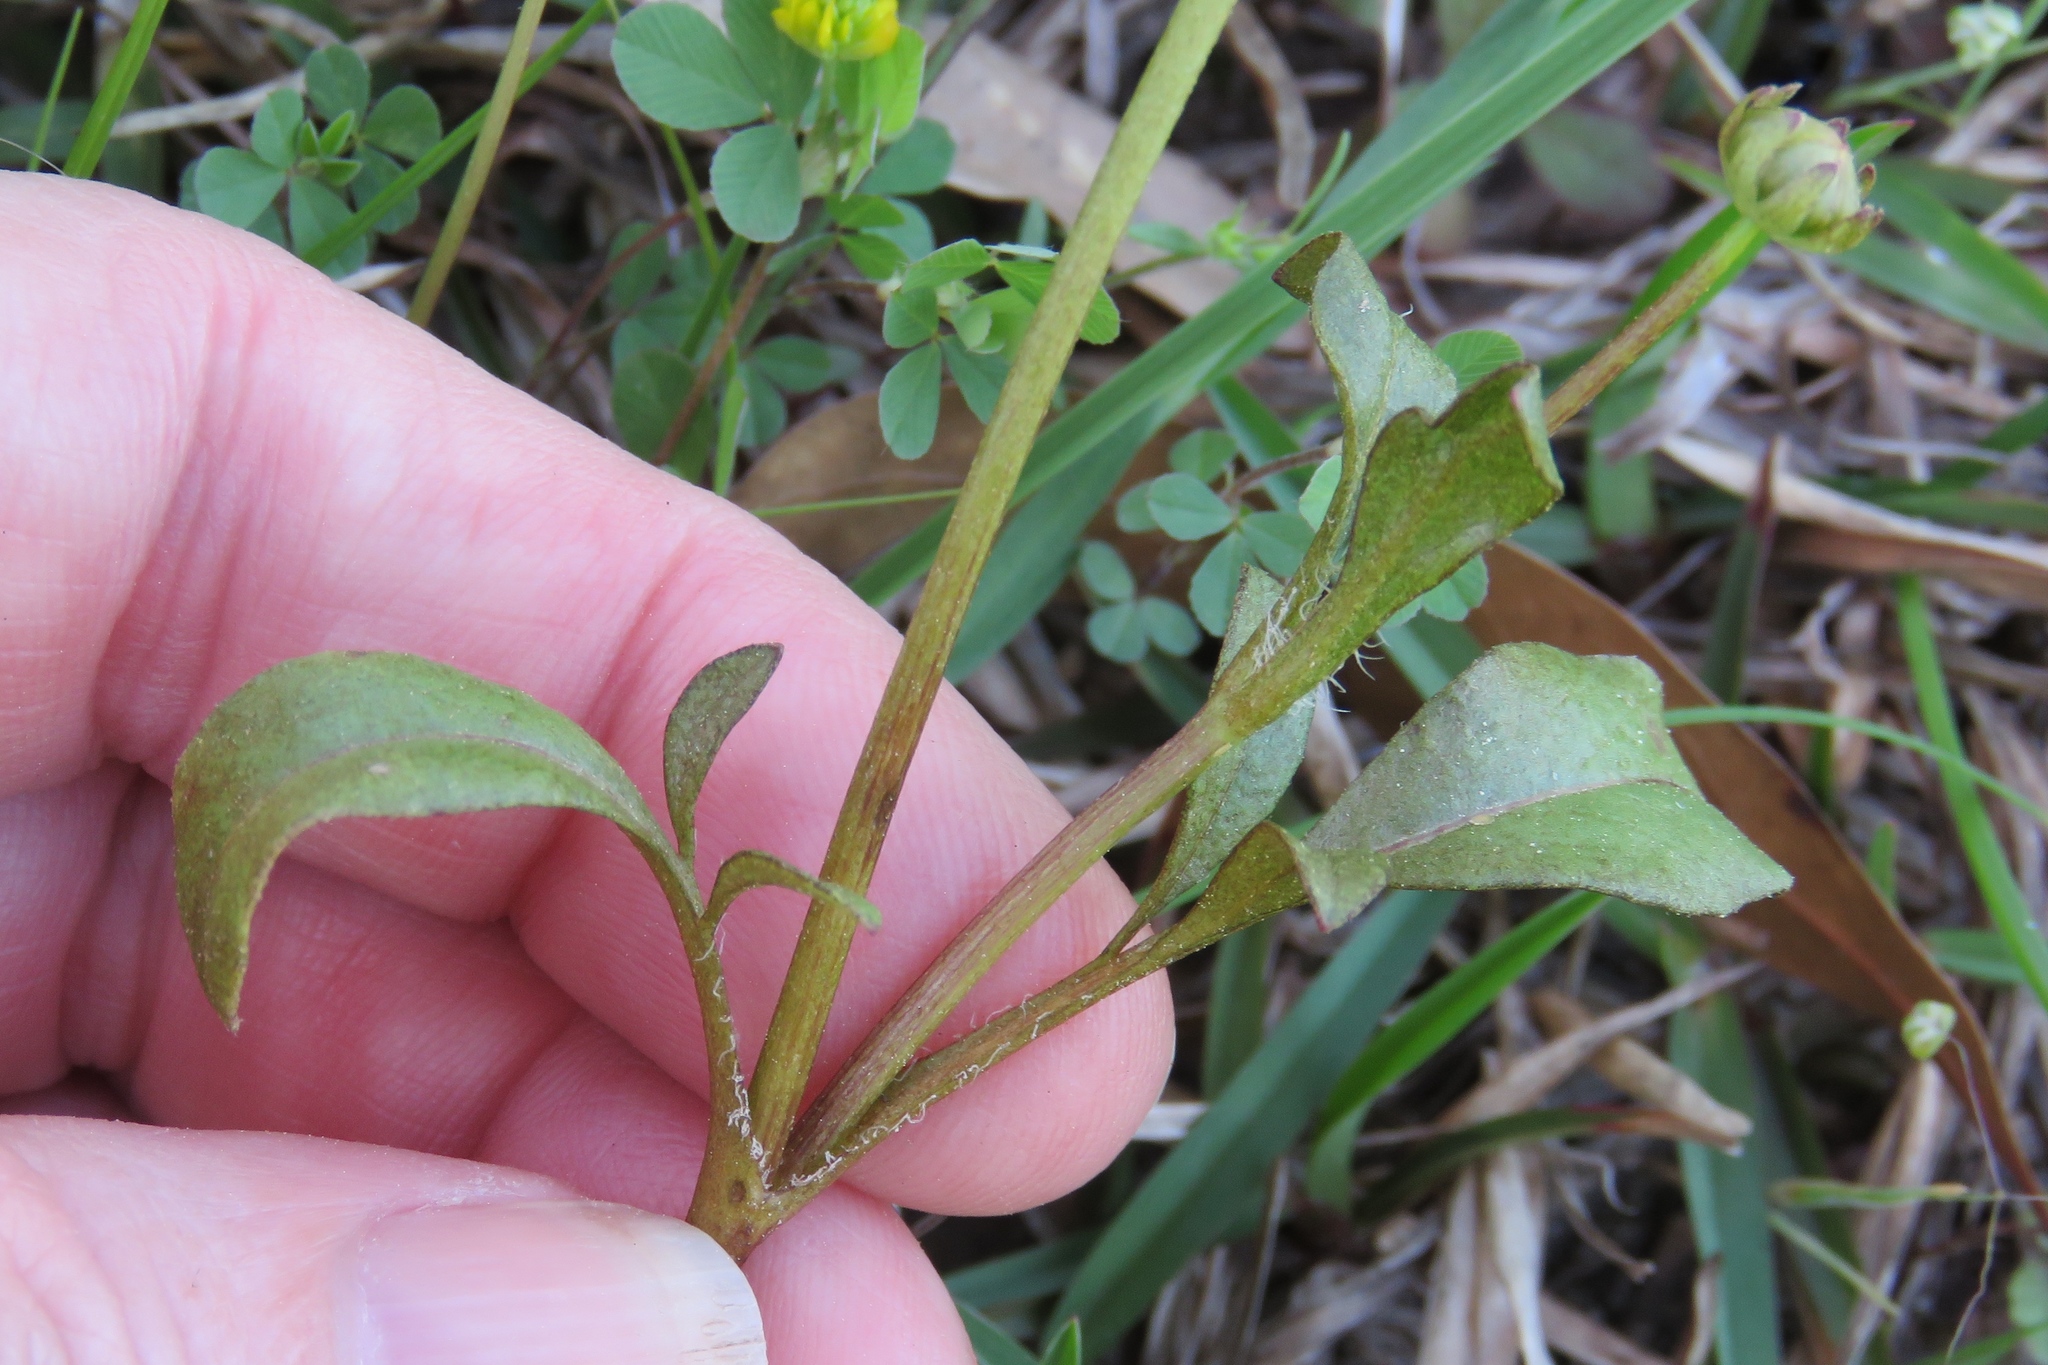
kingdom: Plantae
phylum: Tracheophyta
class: Magnoliopsida
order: Asterales
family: Asteraceae
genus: Coreopsis
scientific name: Coreopsis nuecensis
